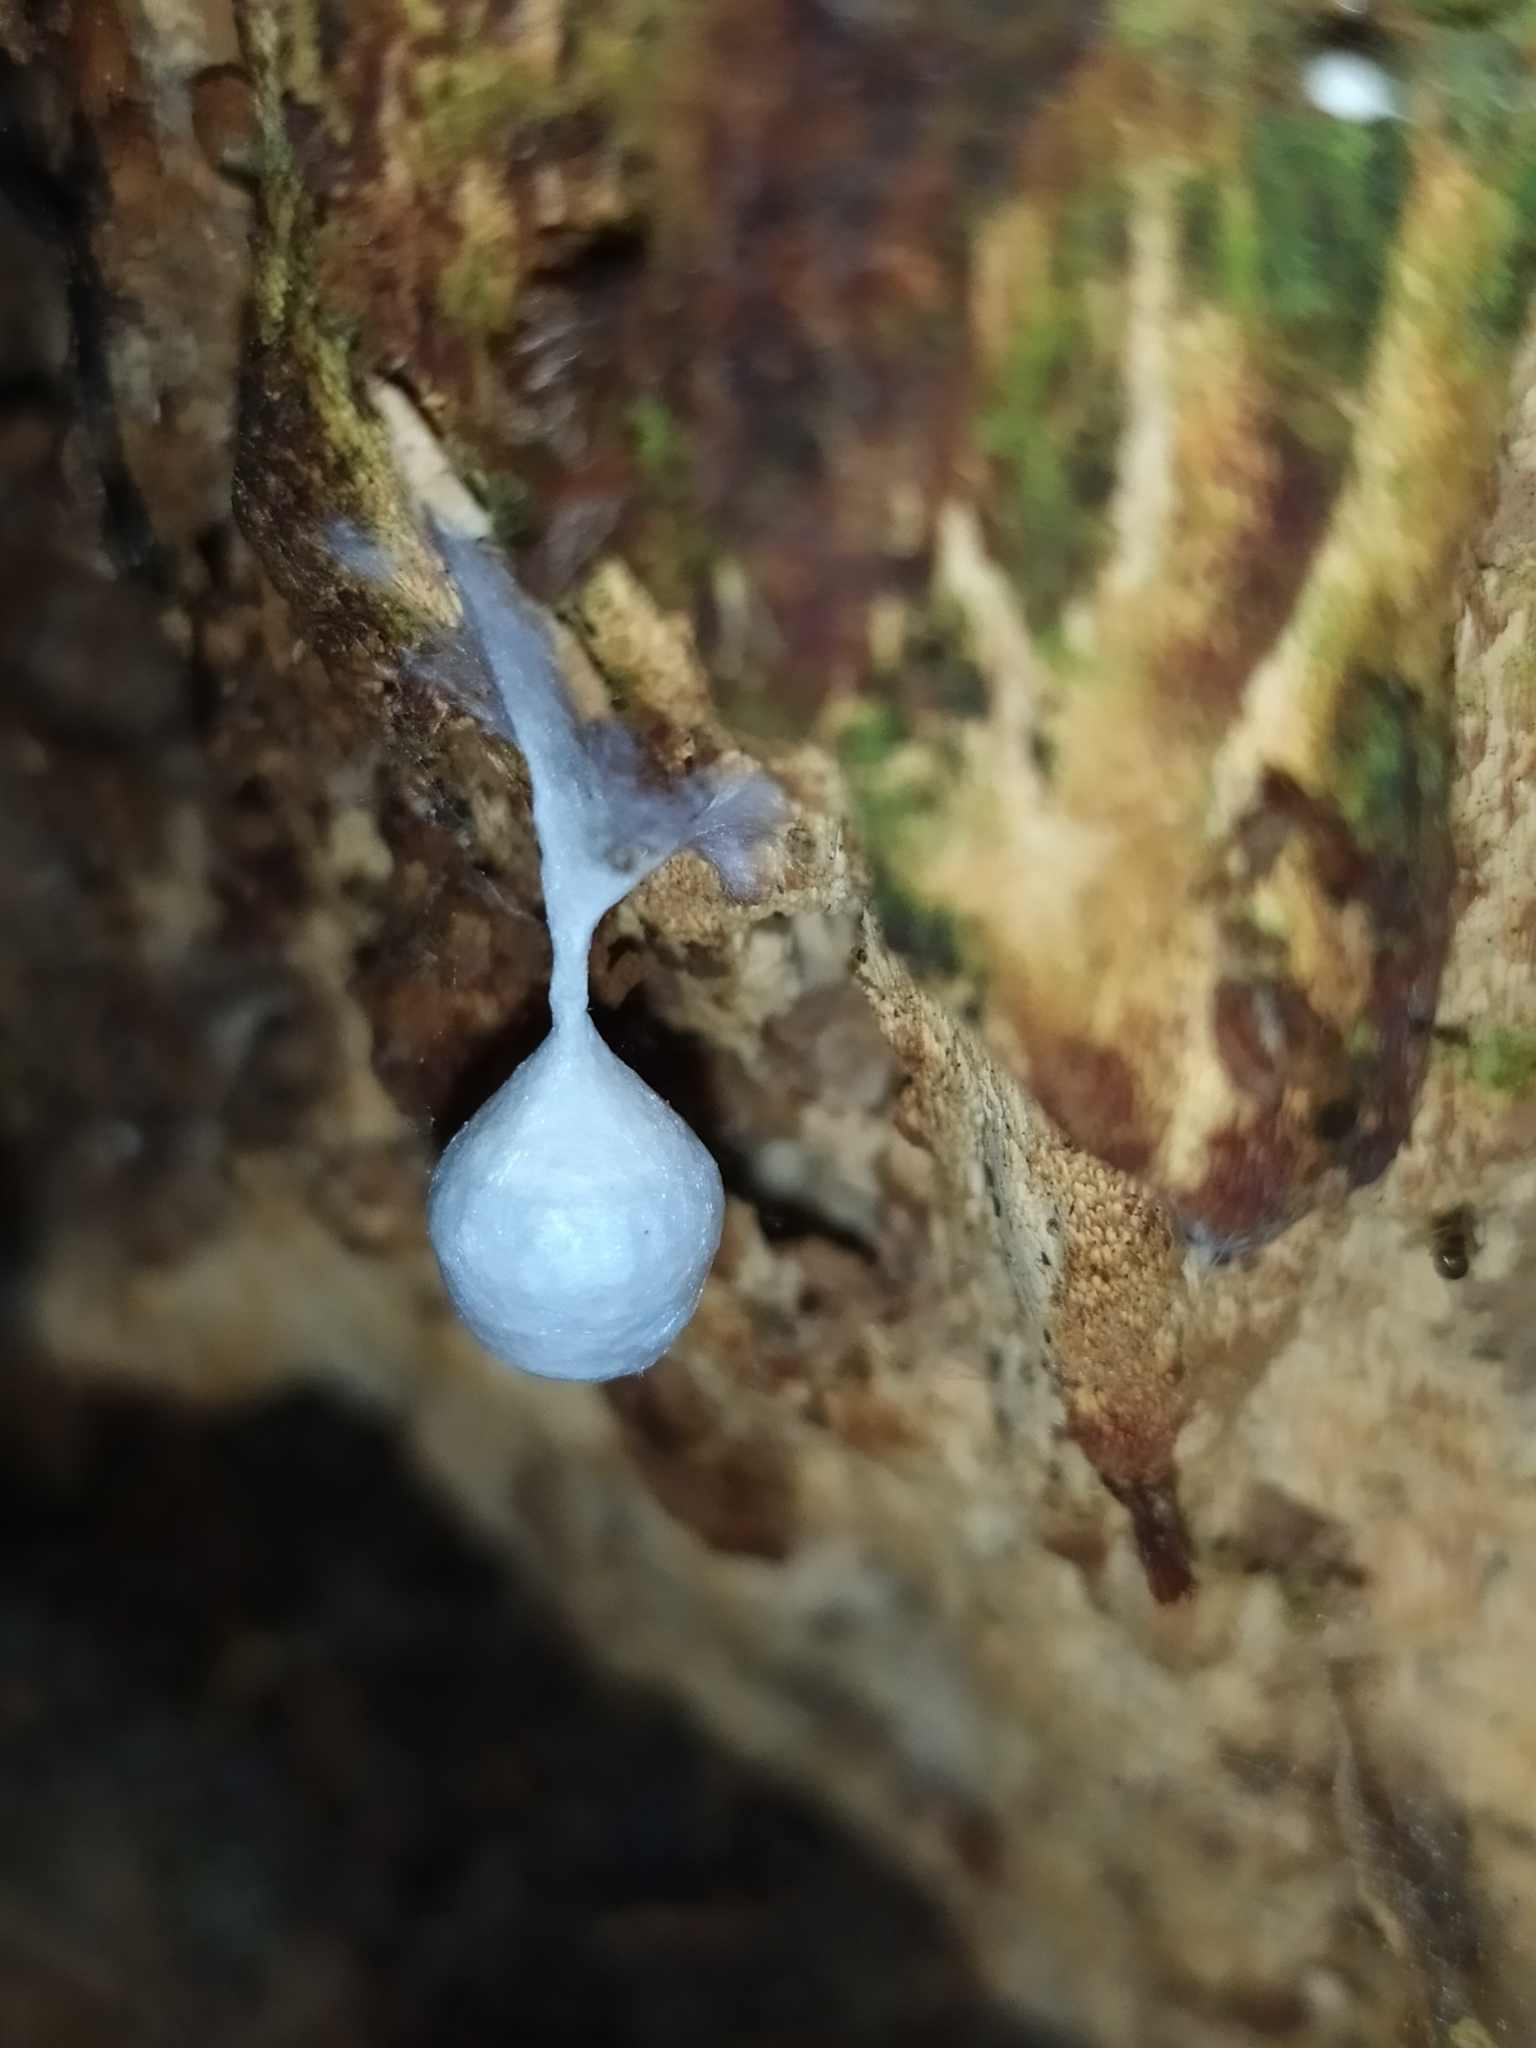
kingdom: Animalia
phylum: Arthropoda
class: Arachnida
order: Araneae
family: Liocranidae
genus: Agroeca
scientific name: Agroeca brunnea
